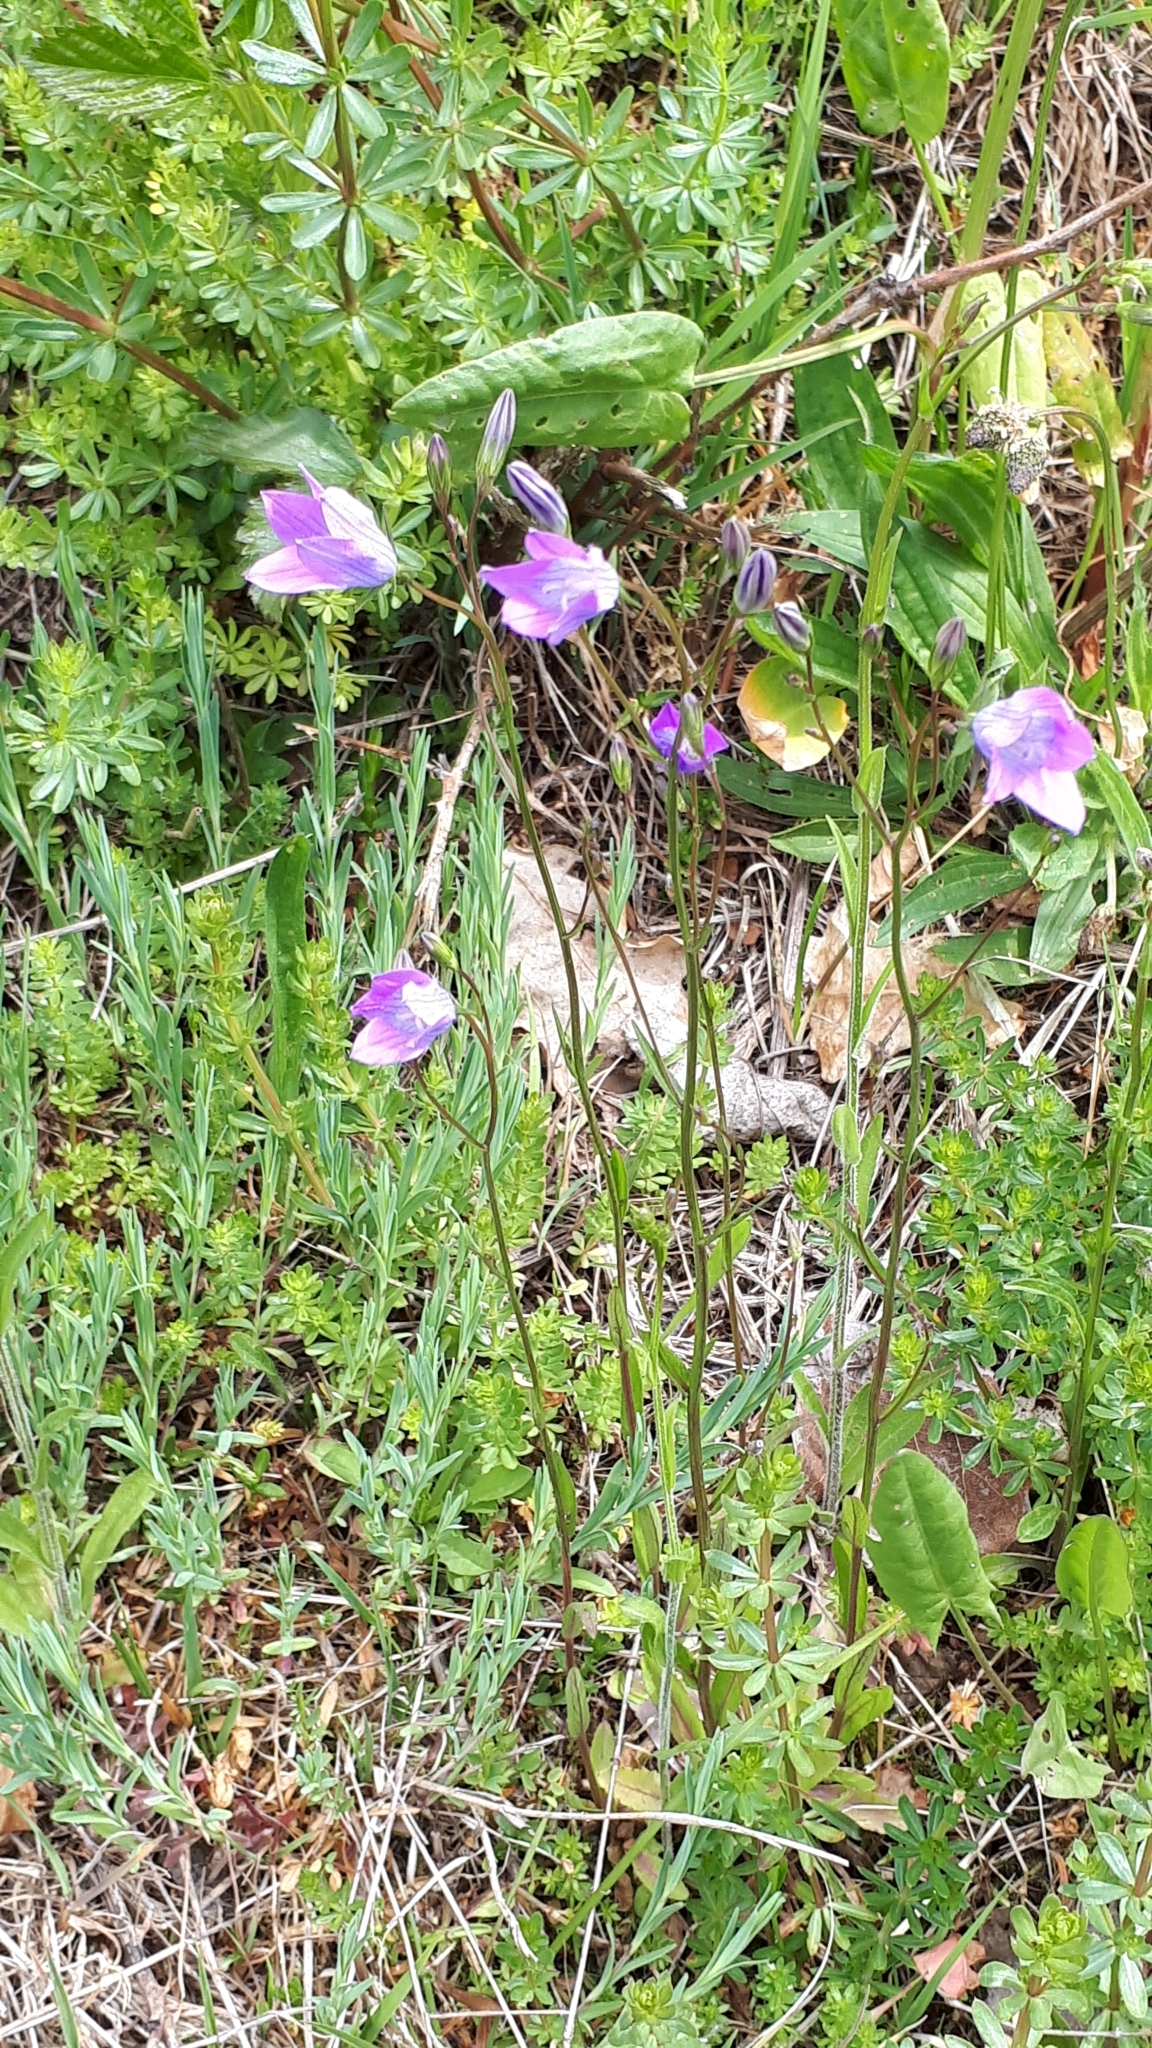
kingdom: Plantae
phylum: Tracheophyta
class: Magnoliopsida
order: Asterales
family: Campanulaceae
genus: Campanula
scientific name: Campanula patula
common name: Spreading bellflower
